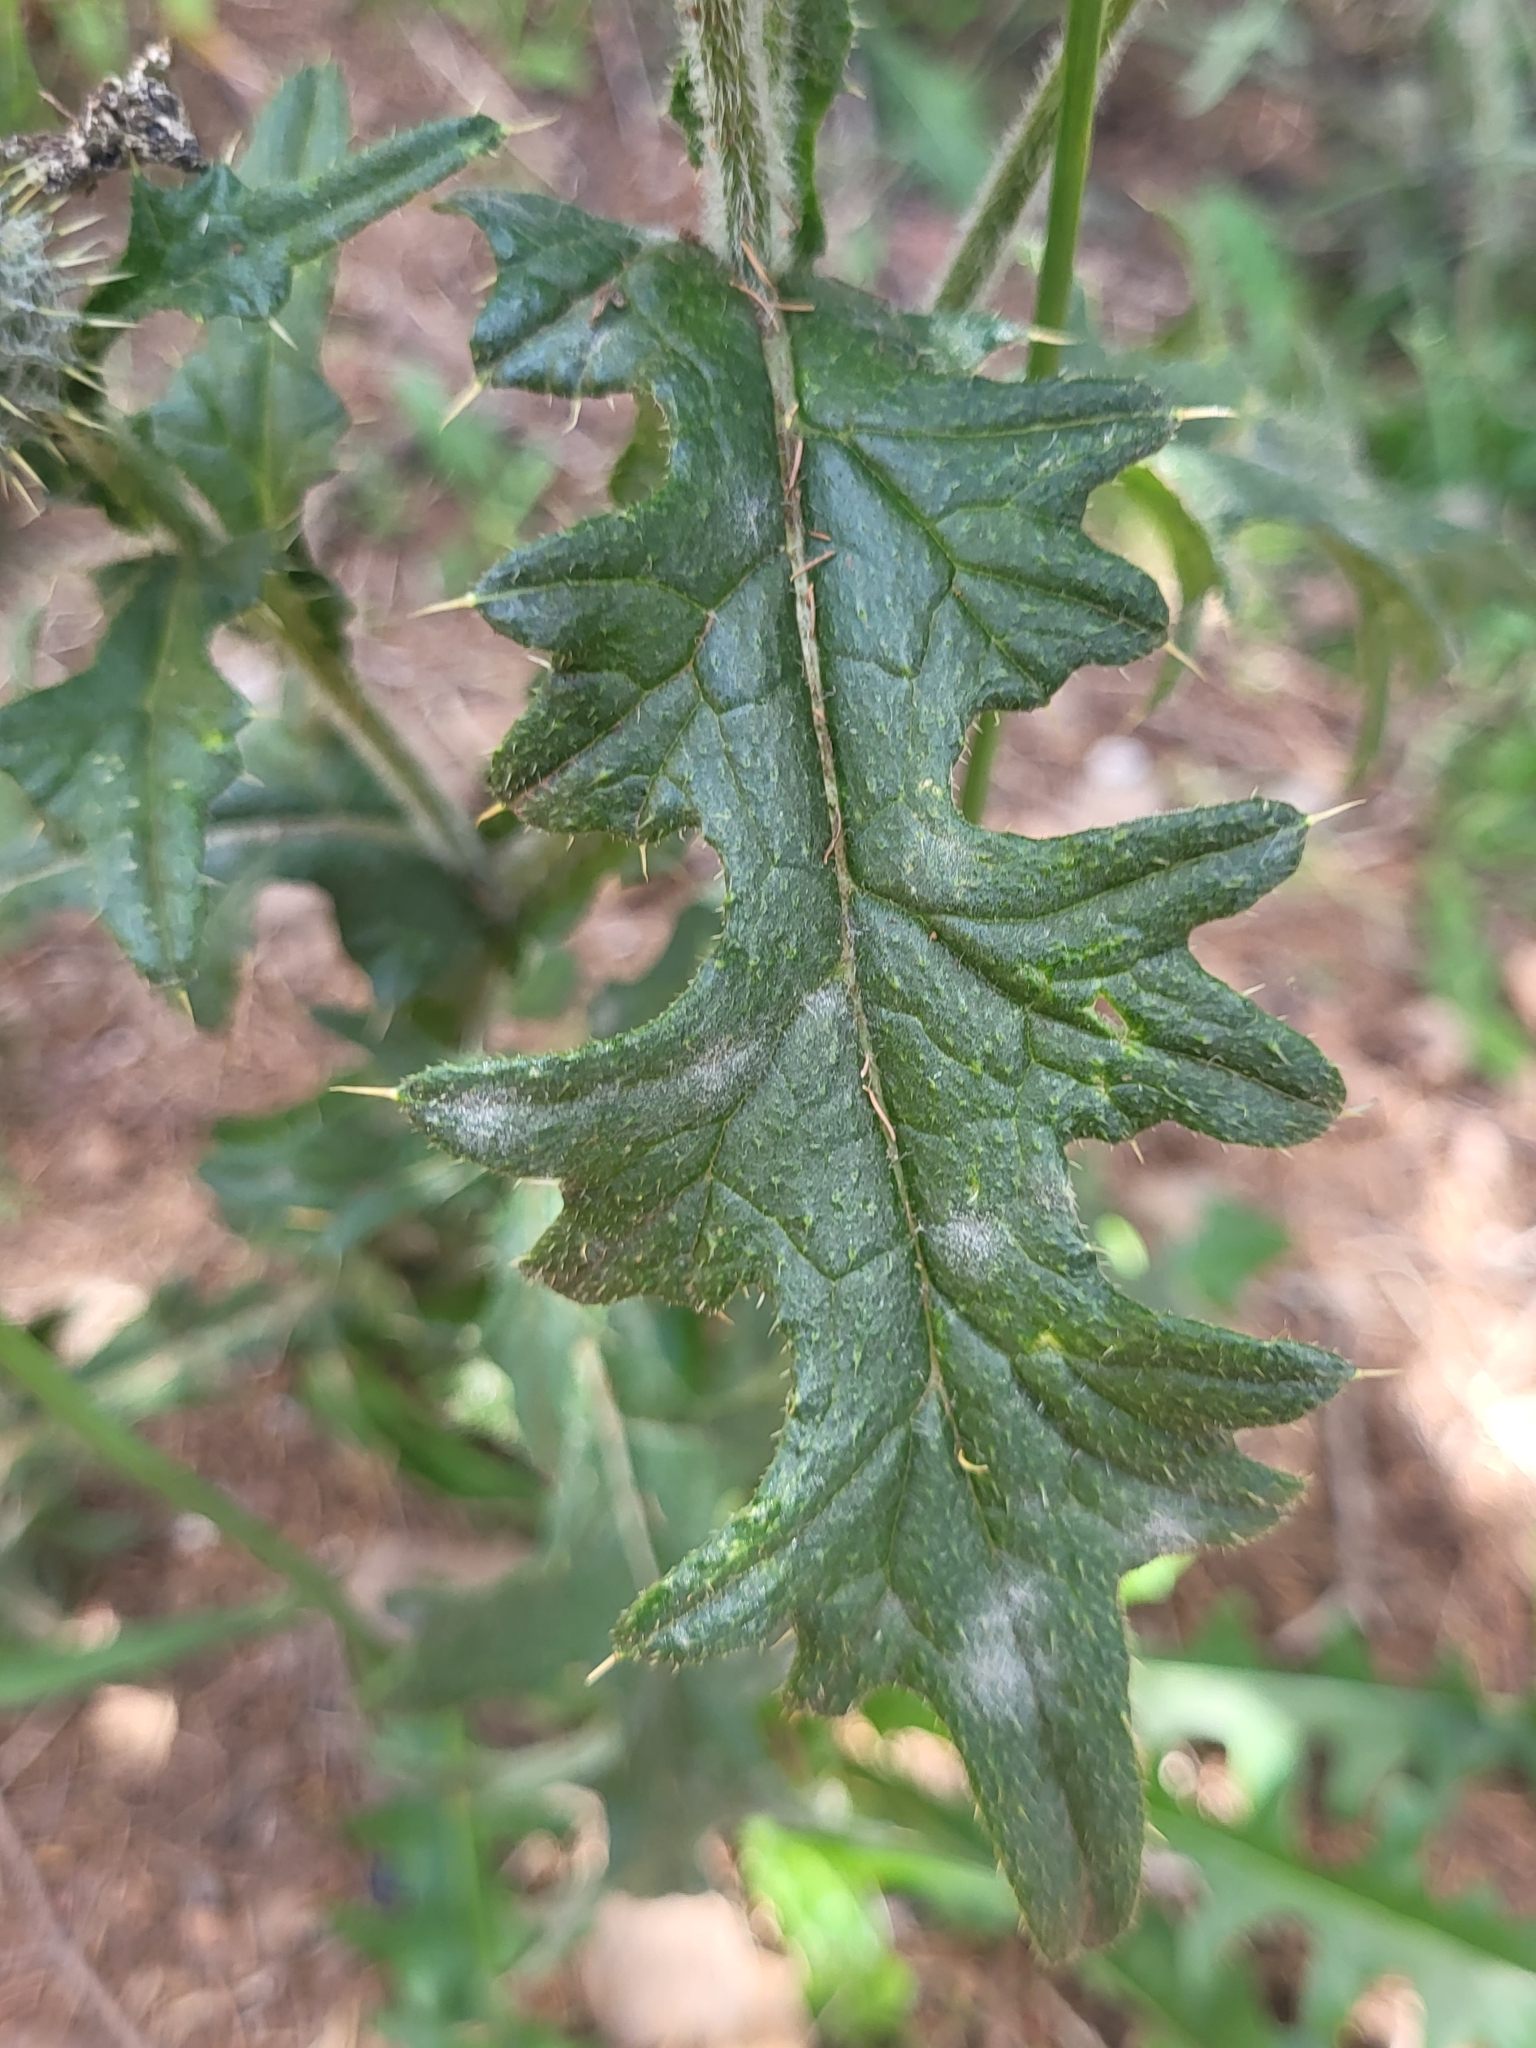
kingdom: Plantae
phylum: Tracheophyta
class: Magnoliopsida
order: Asterales
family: Asteraceae
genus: Cirsium
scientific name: Cirsium vulgare
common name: Bull thistle
